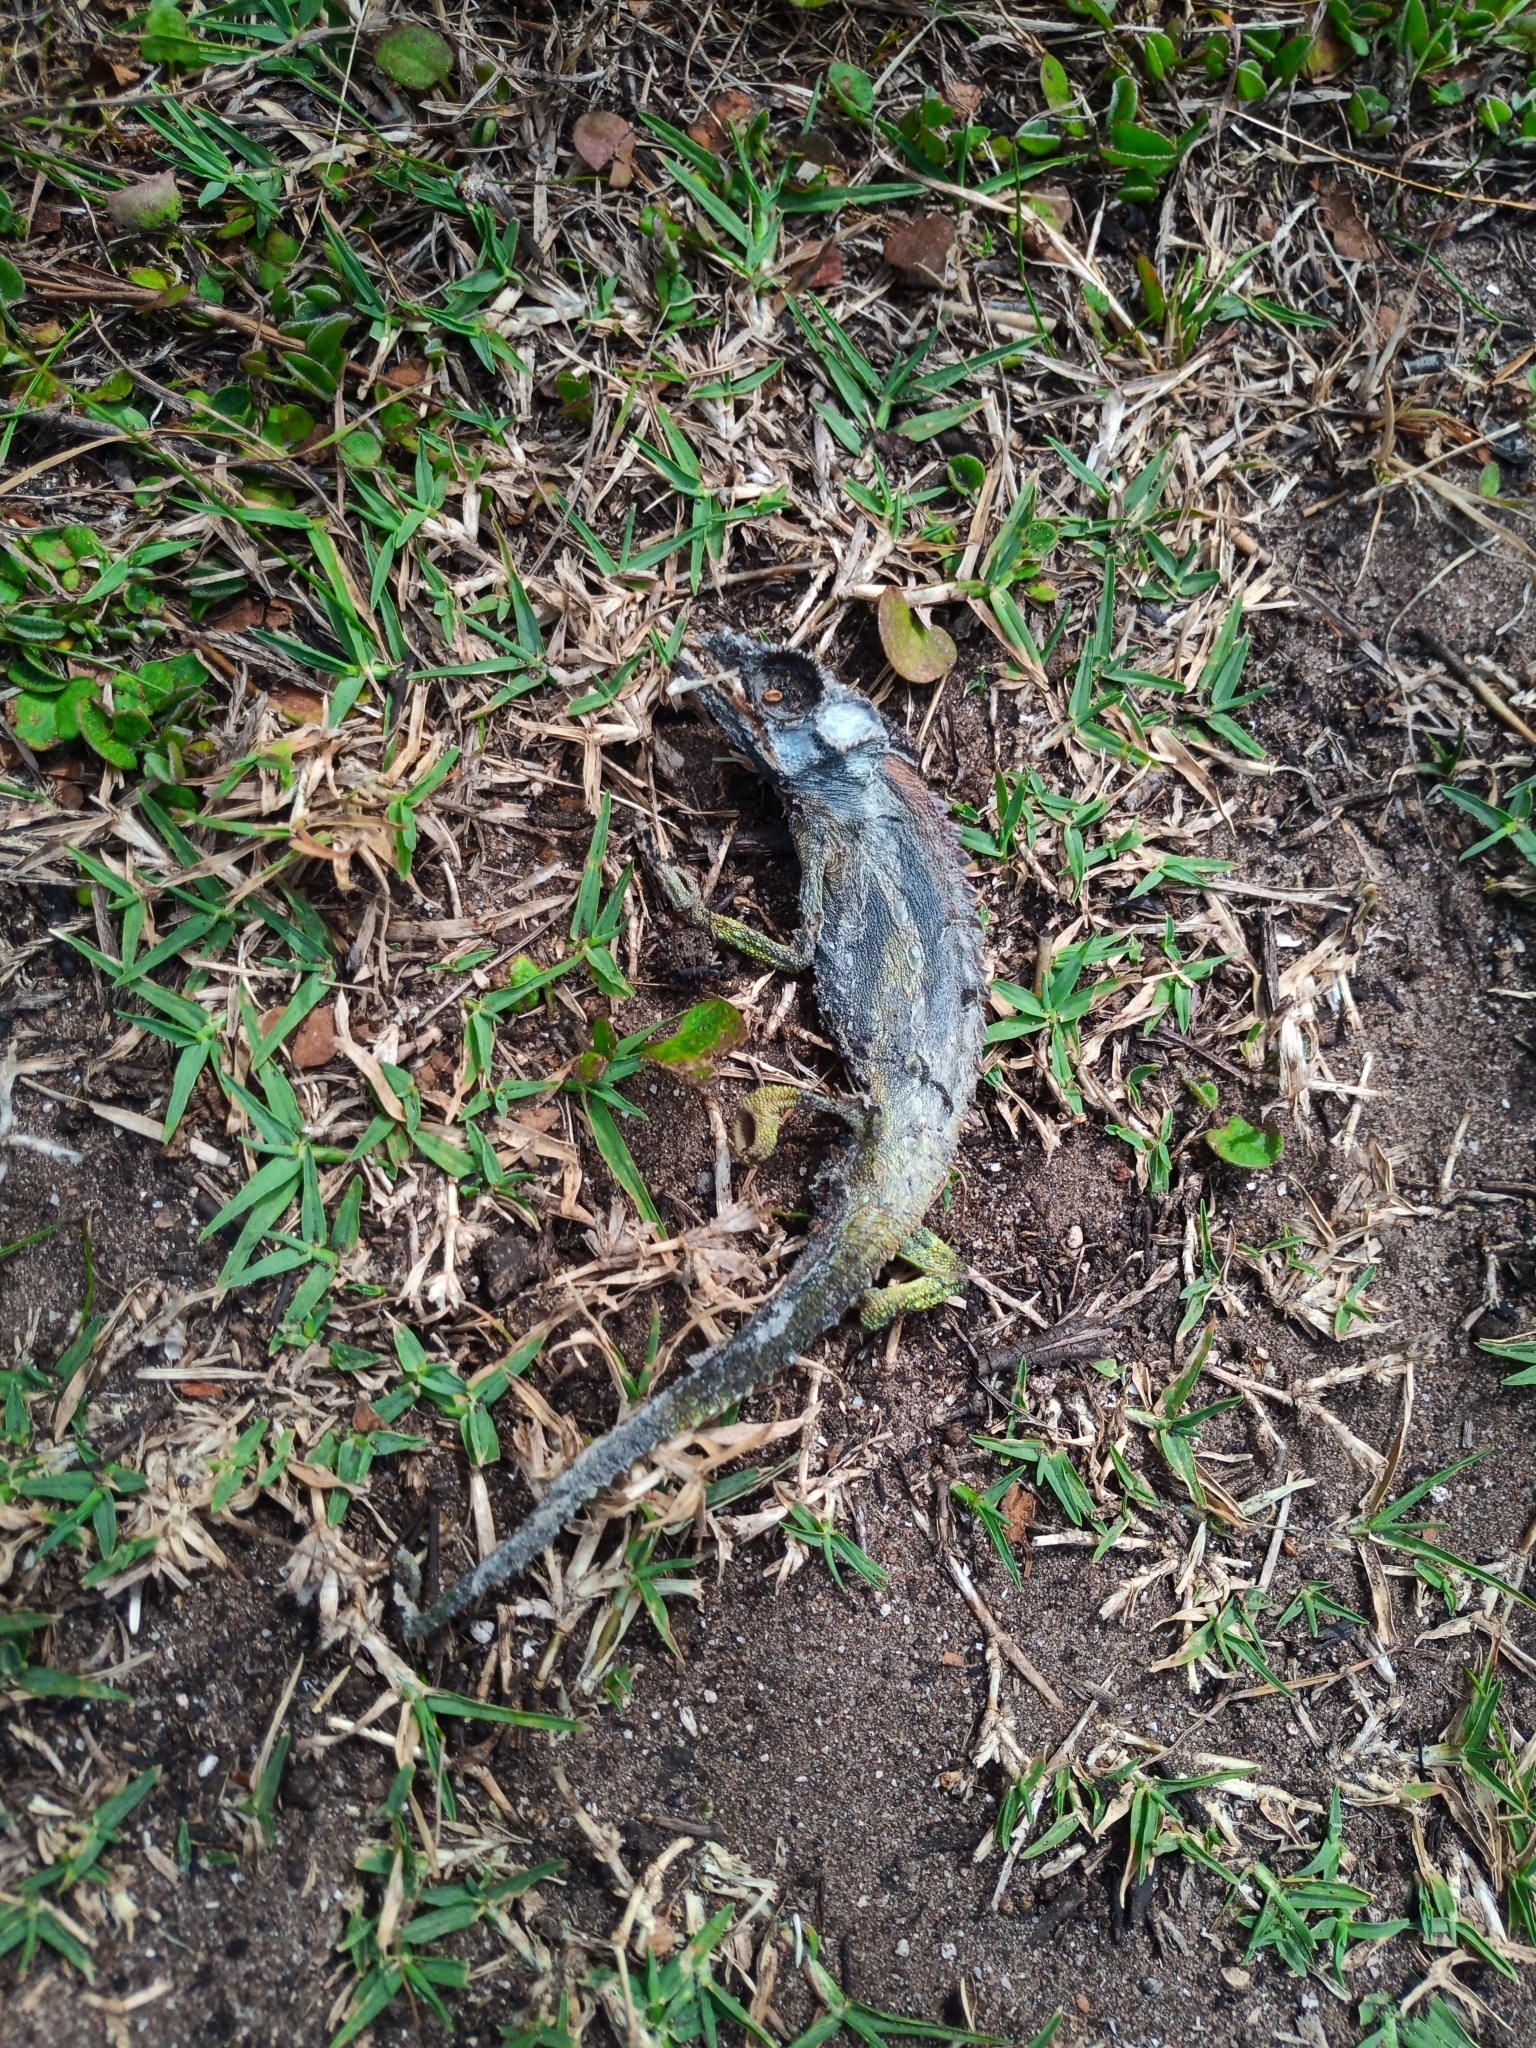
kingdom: Animalia
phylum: Chordata
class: Squamata
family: Chamaeleonidae
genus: Bradypodion
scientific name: Bradypodion gutturale
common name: Little karoo dwarf chameleon
